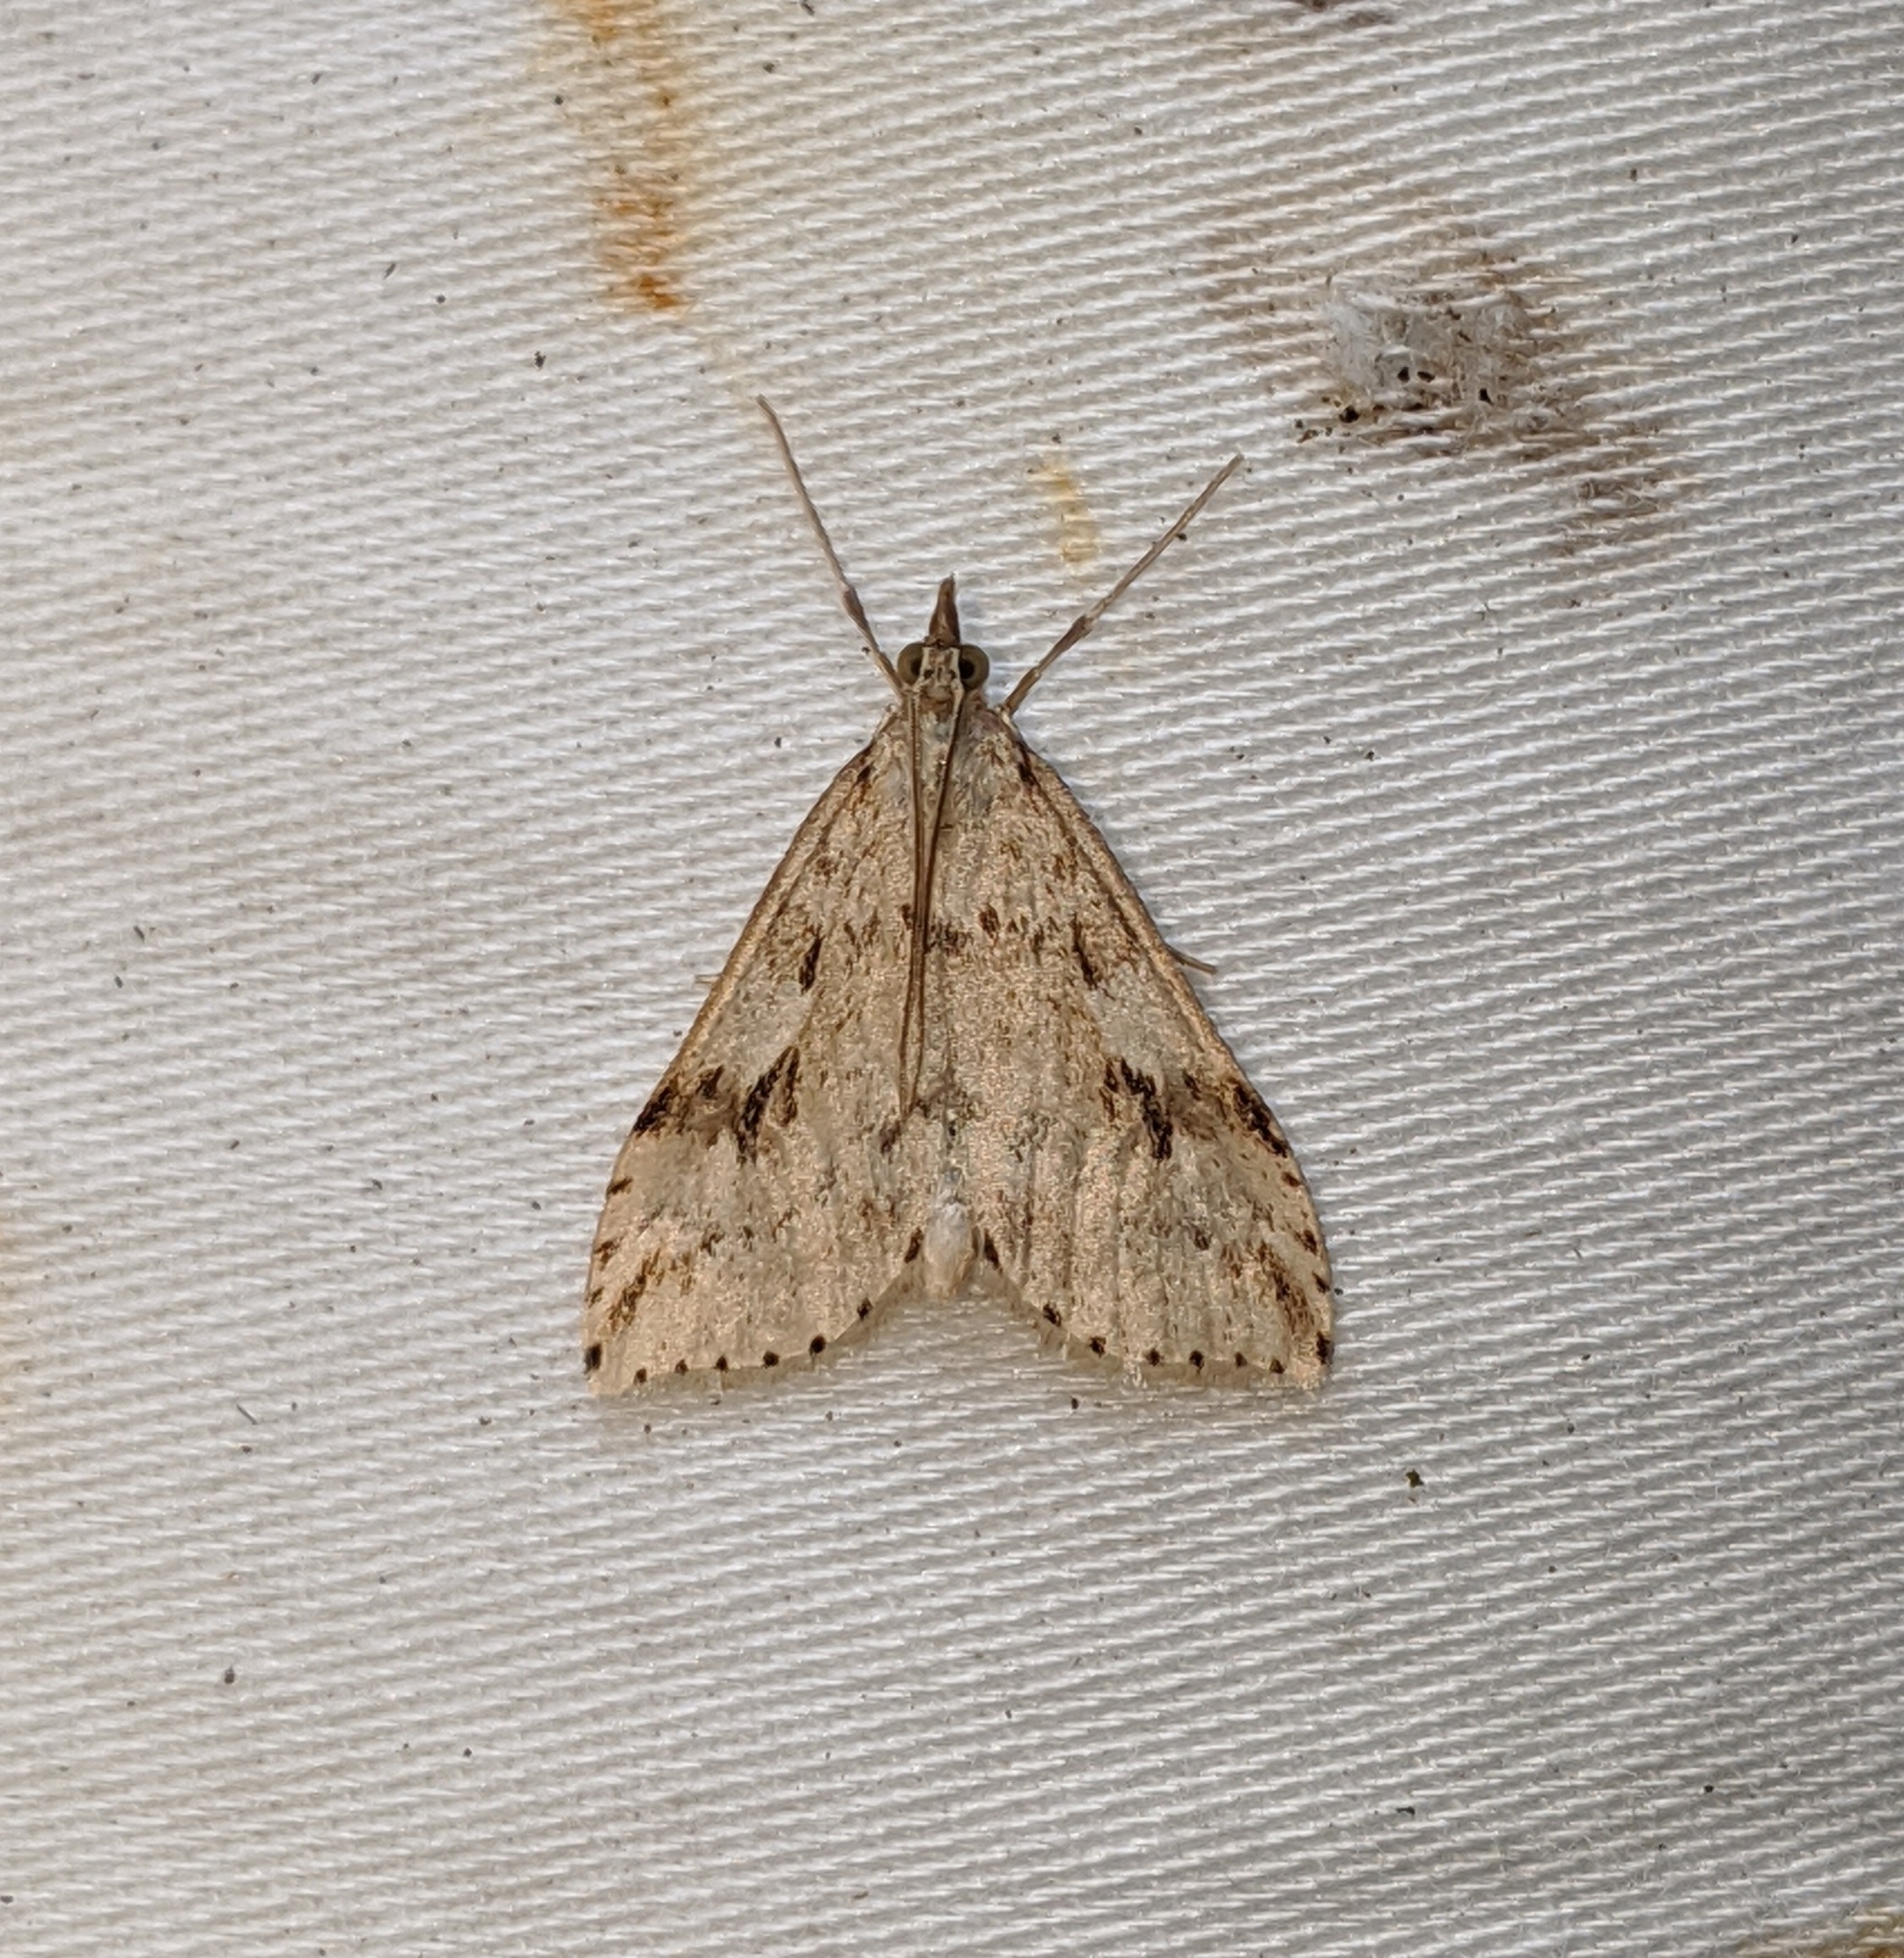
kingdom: Animalia
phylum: Arthropoda
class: Insecta
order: Lepidoptera
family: Crambidae
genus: Udea
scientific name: Udea washingtonalis
